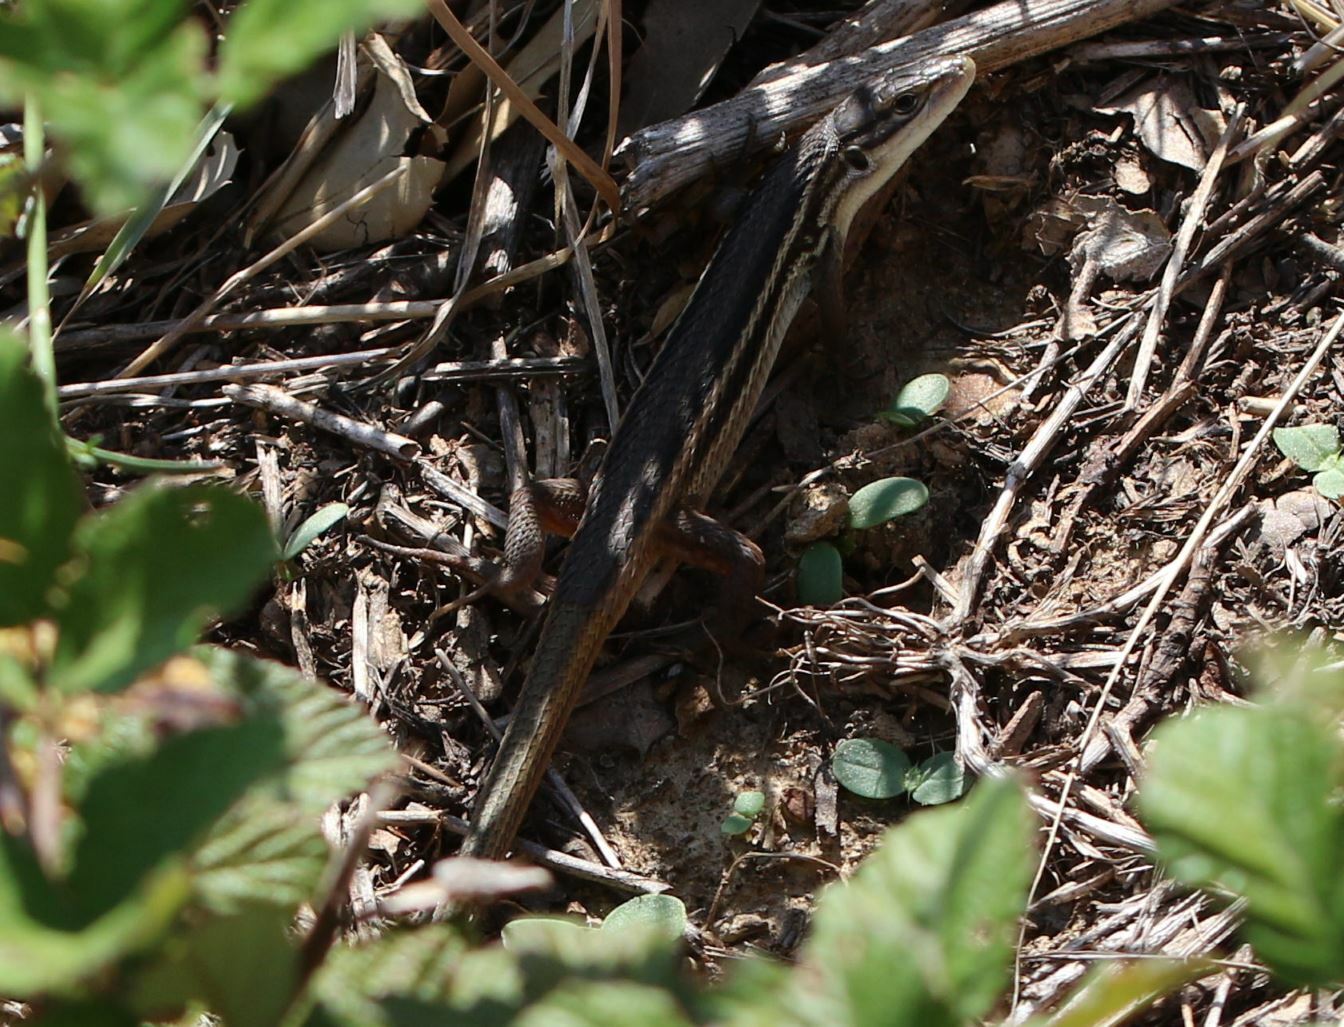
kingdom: Animalia
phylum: Chordata
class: Squamata
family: Lacertidae
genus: Psammodromus
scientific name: Psammodromus algirus
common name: Algerian psammodromus
